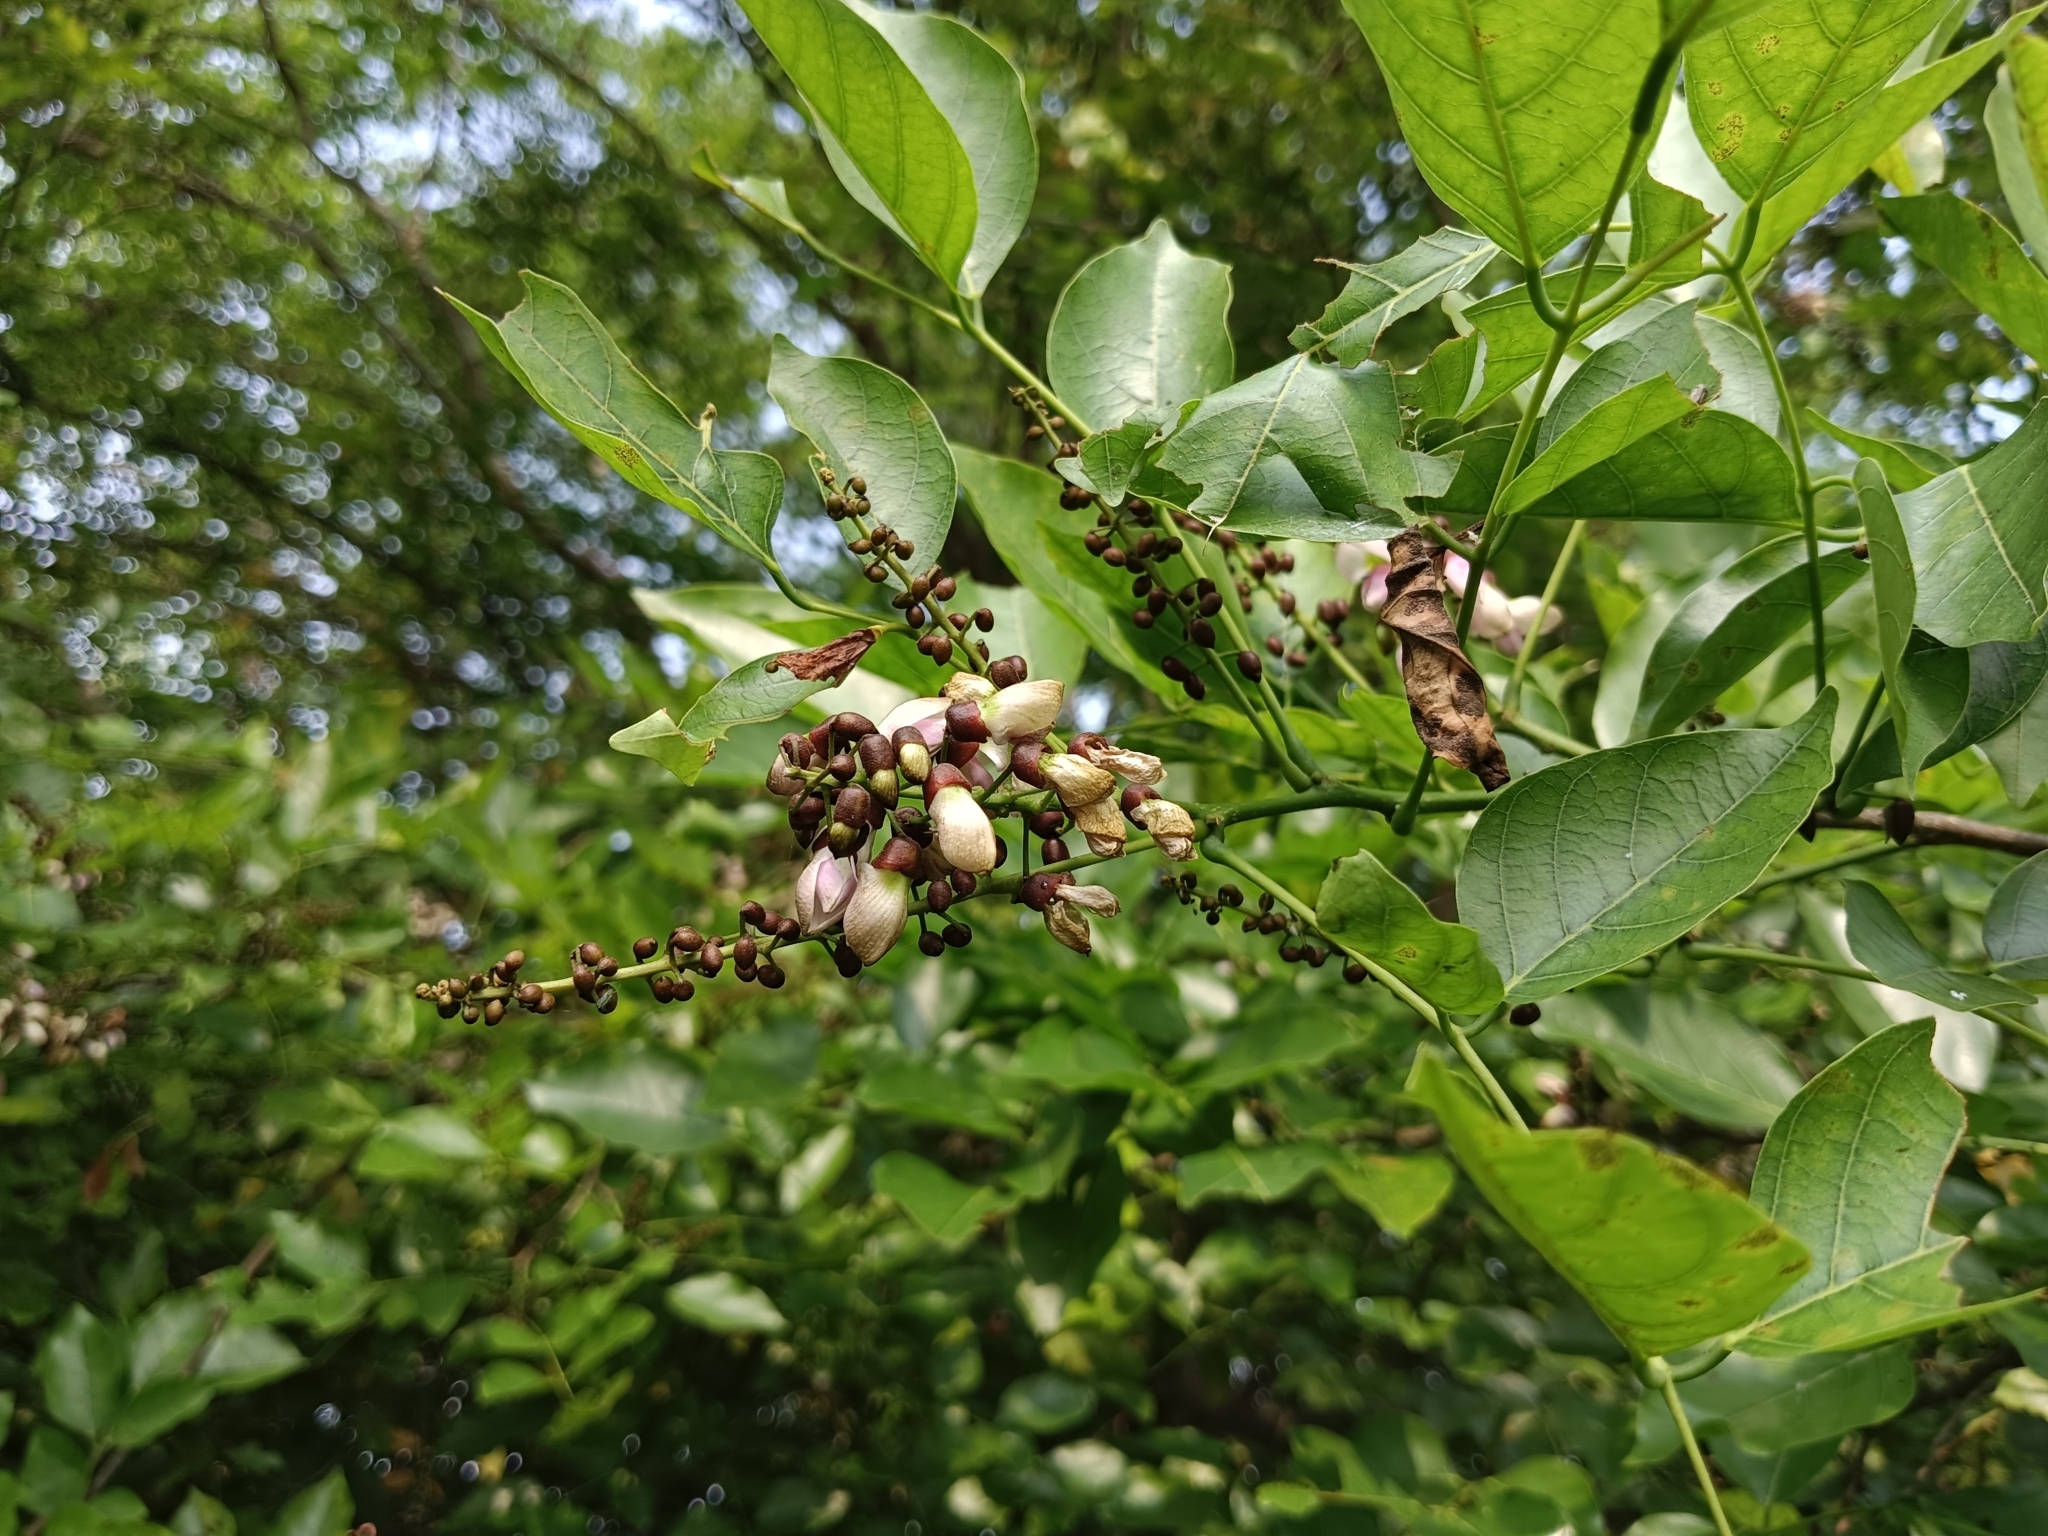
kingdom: Plantae
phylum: Tracheophyta
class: Magnoliopsida
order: Fabales
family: Fabaceae
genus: Pongamia
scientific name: Pongamia pinnata
